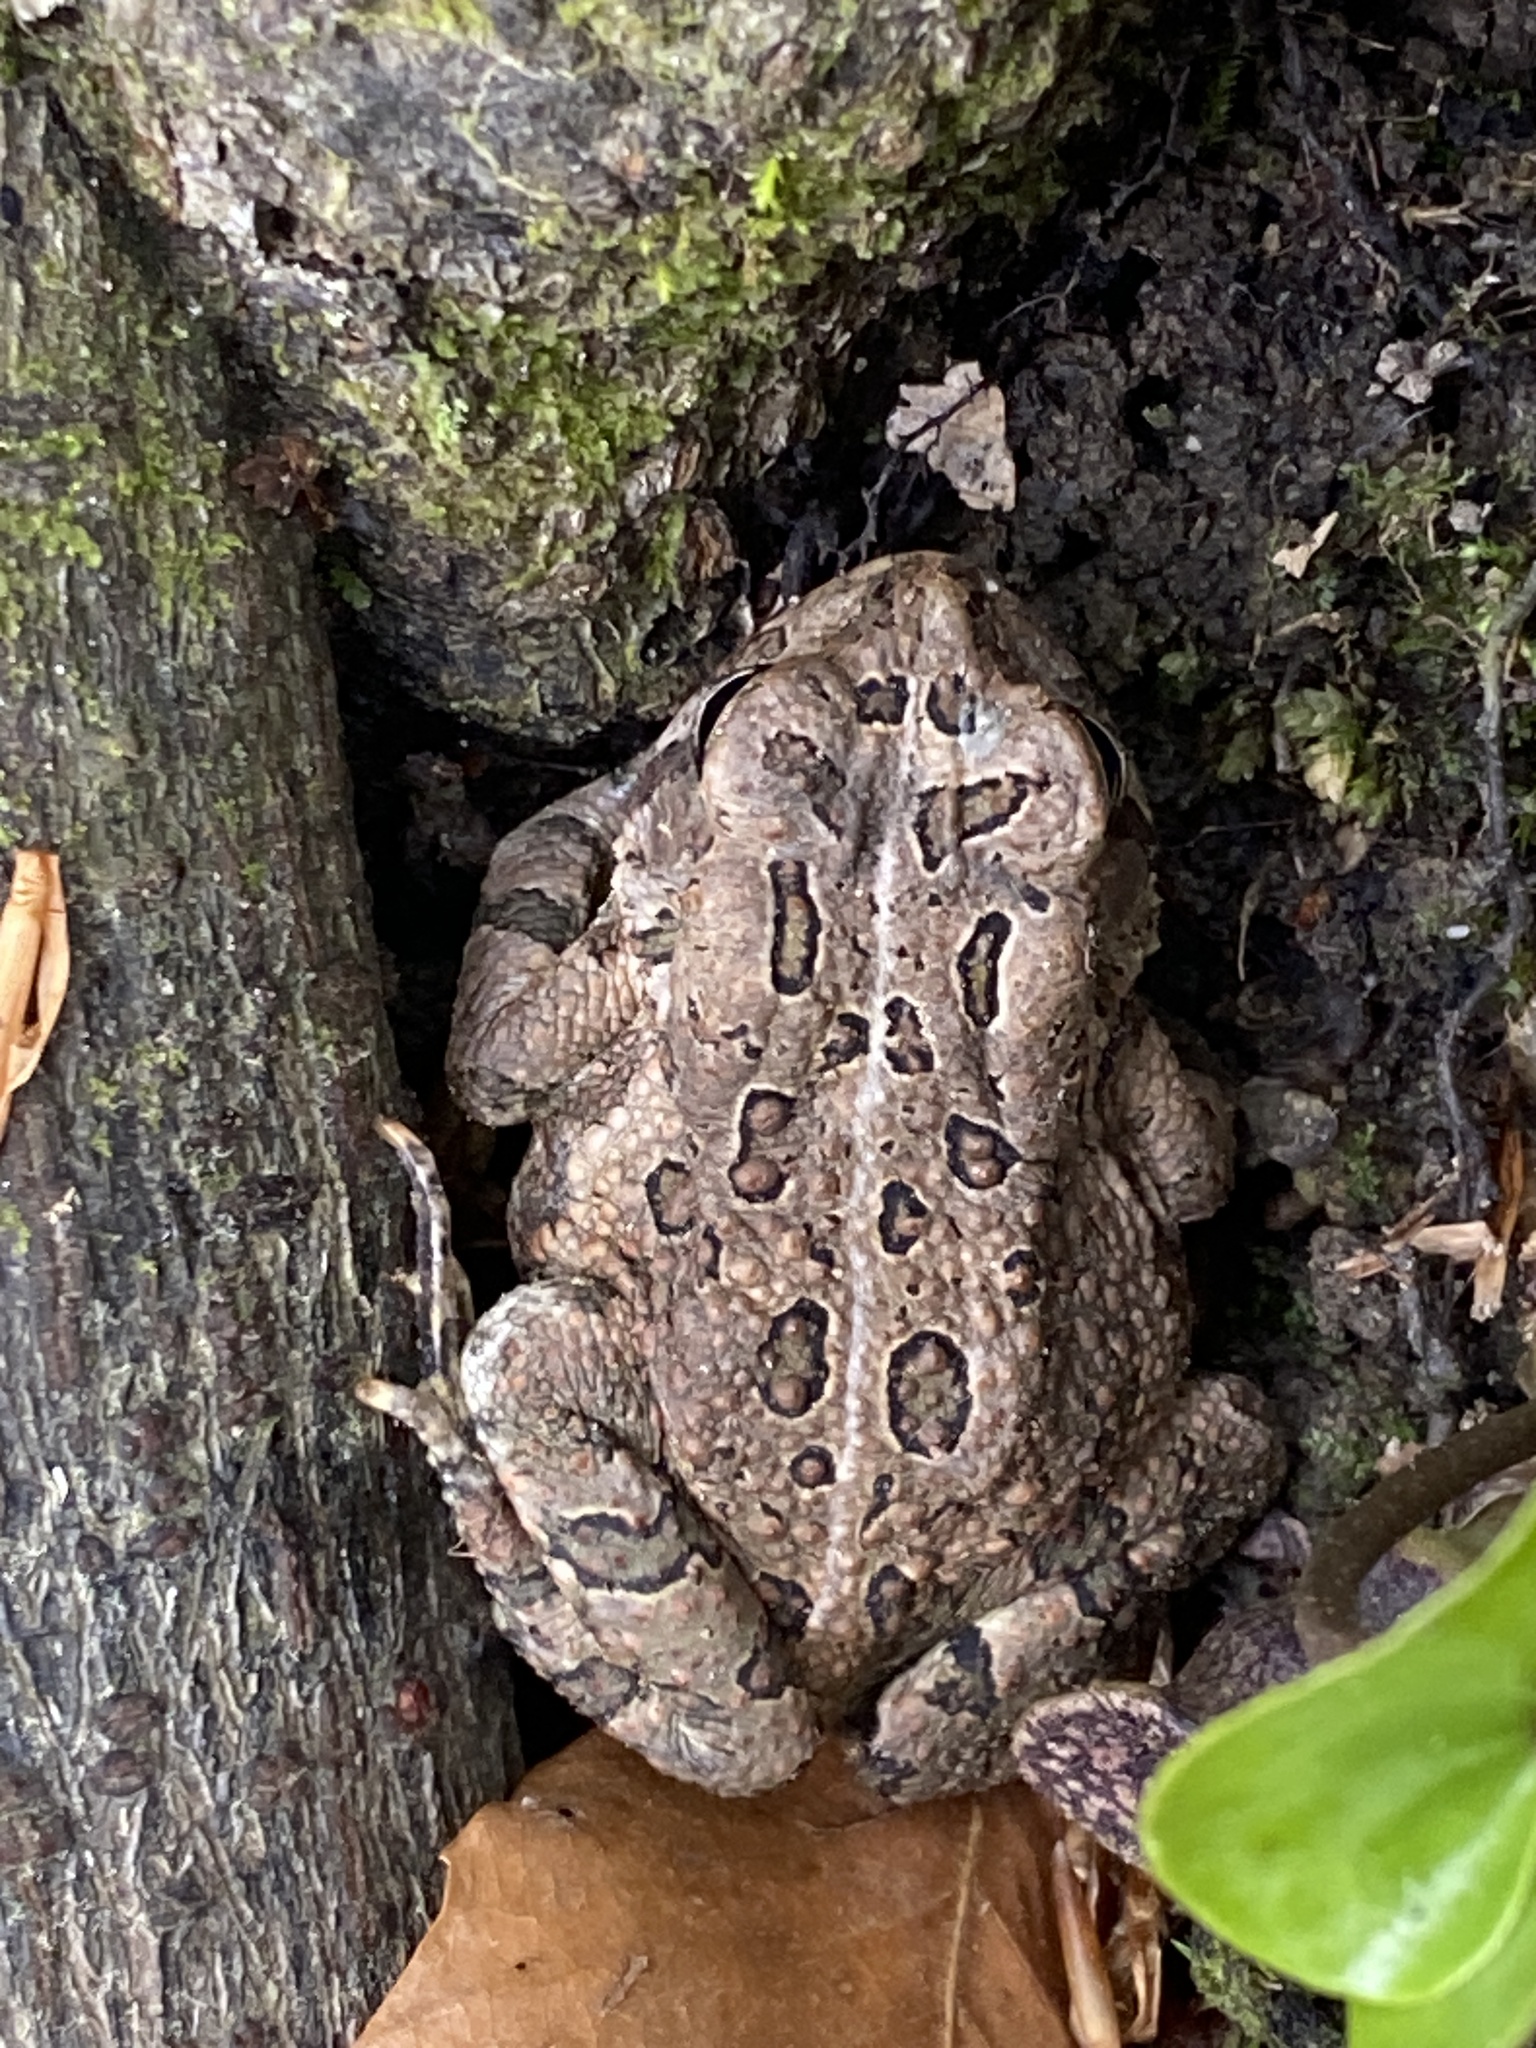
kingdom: Animalia
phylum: Chordata
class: Amphibia
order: Anura
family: Bufonidae
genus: Anaxyrus
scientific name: Anaxyrus fowleri
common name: Fowler's toad
